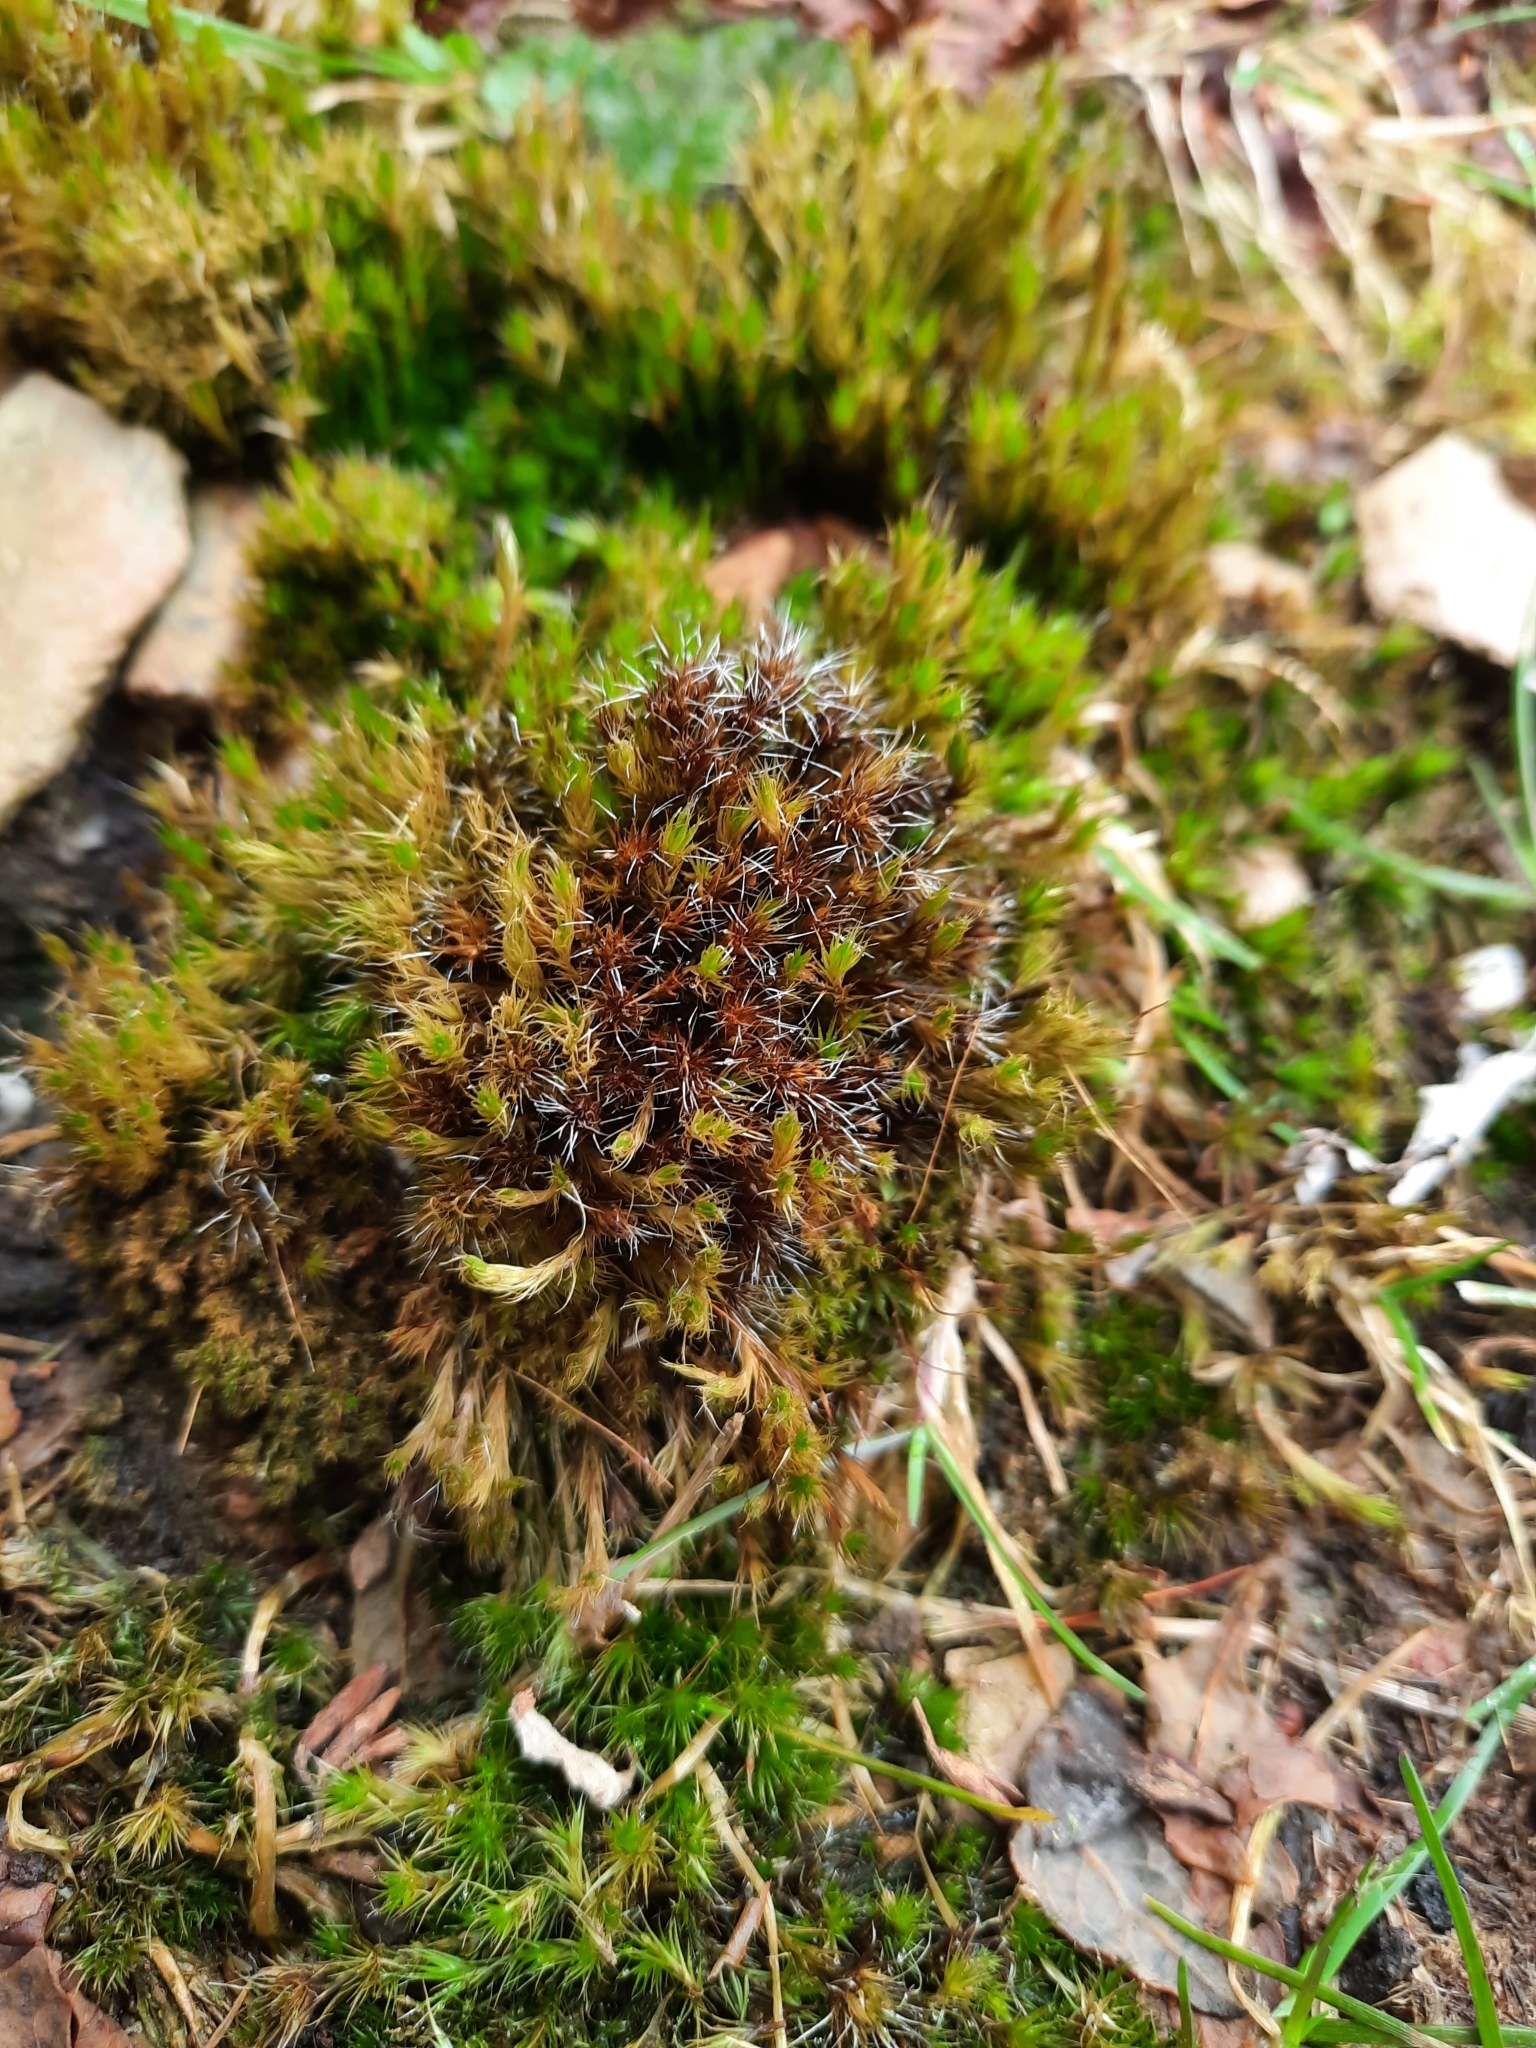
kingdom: Plantae
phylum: Bryophyta
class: Bryopsida
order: Dicranales
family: Leucobryaceae
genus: Campylopus
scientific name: Campylopus introflexus
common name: Heath star moss
